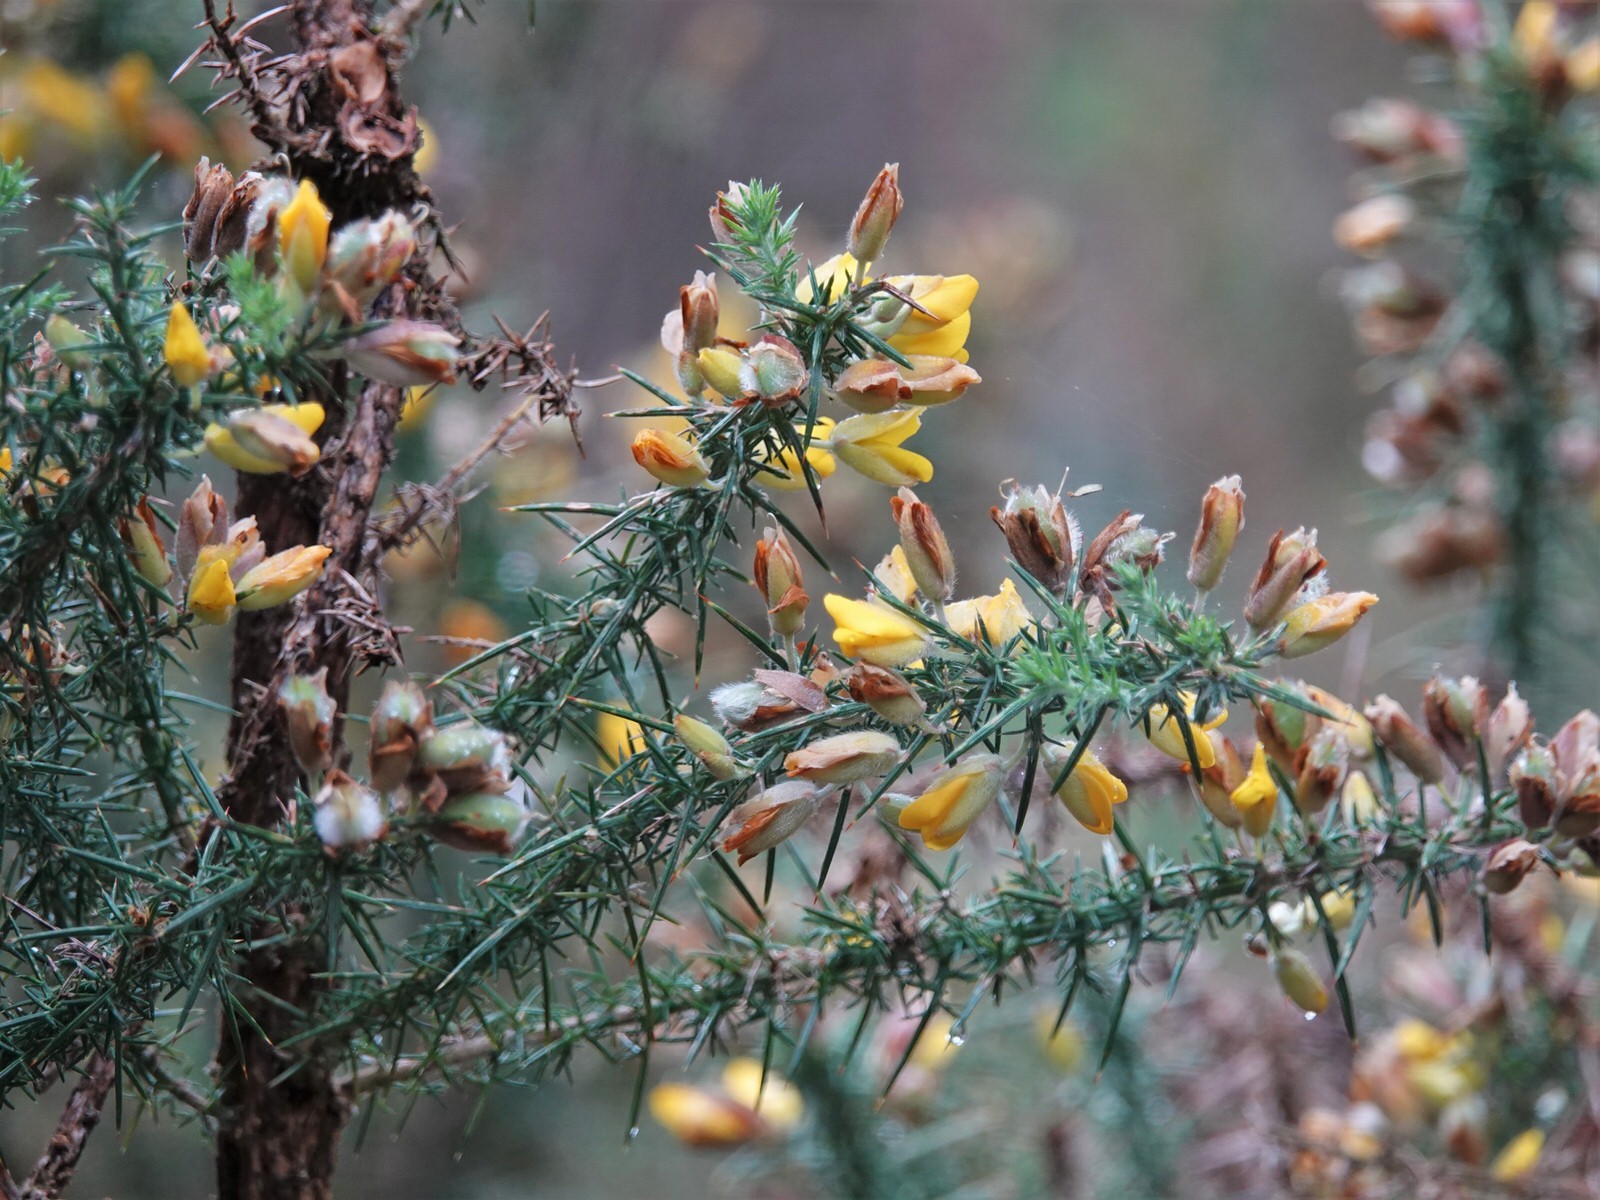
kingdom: Plantae
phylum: Tracheophyta
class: Magnoliopsida
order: Fabales
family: Fabaceae
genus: Ulex
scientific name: Ulex europaeus
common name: Common gorse
